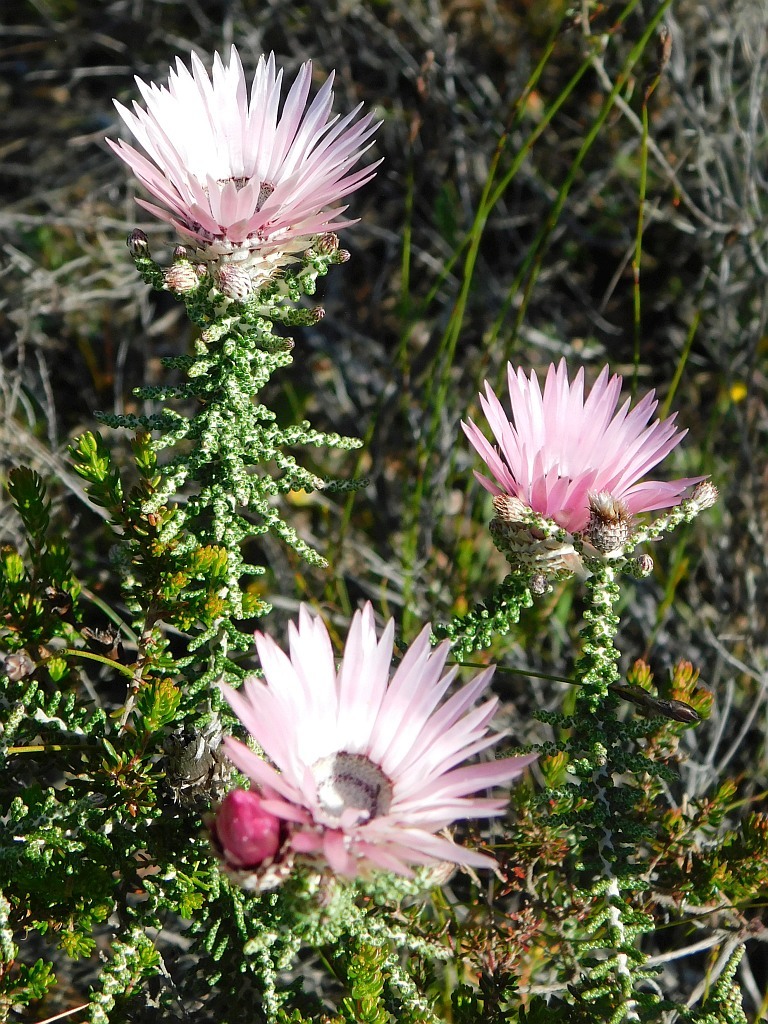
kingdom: Plantae
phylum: Tracheophyta
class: Magnoliopsida
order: Asterales
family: Asteraceae
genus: Phaenocoma
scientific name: Phaenocoma prolifera
